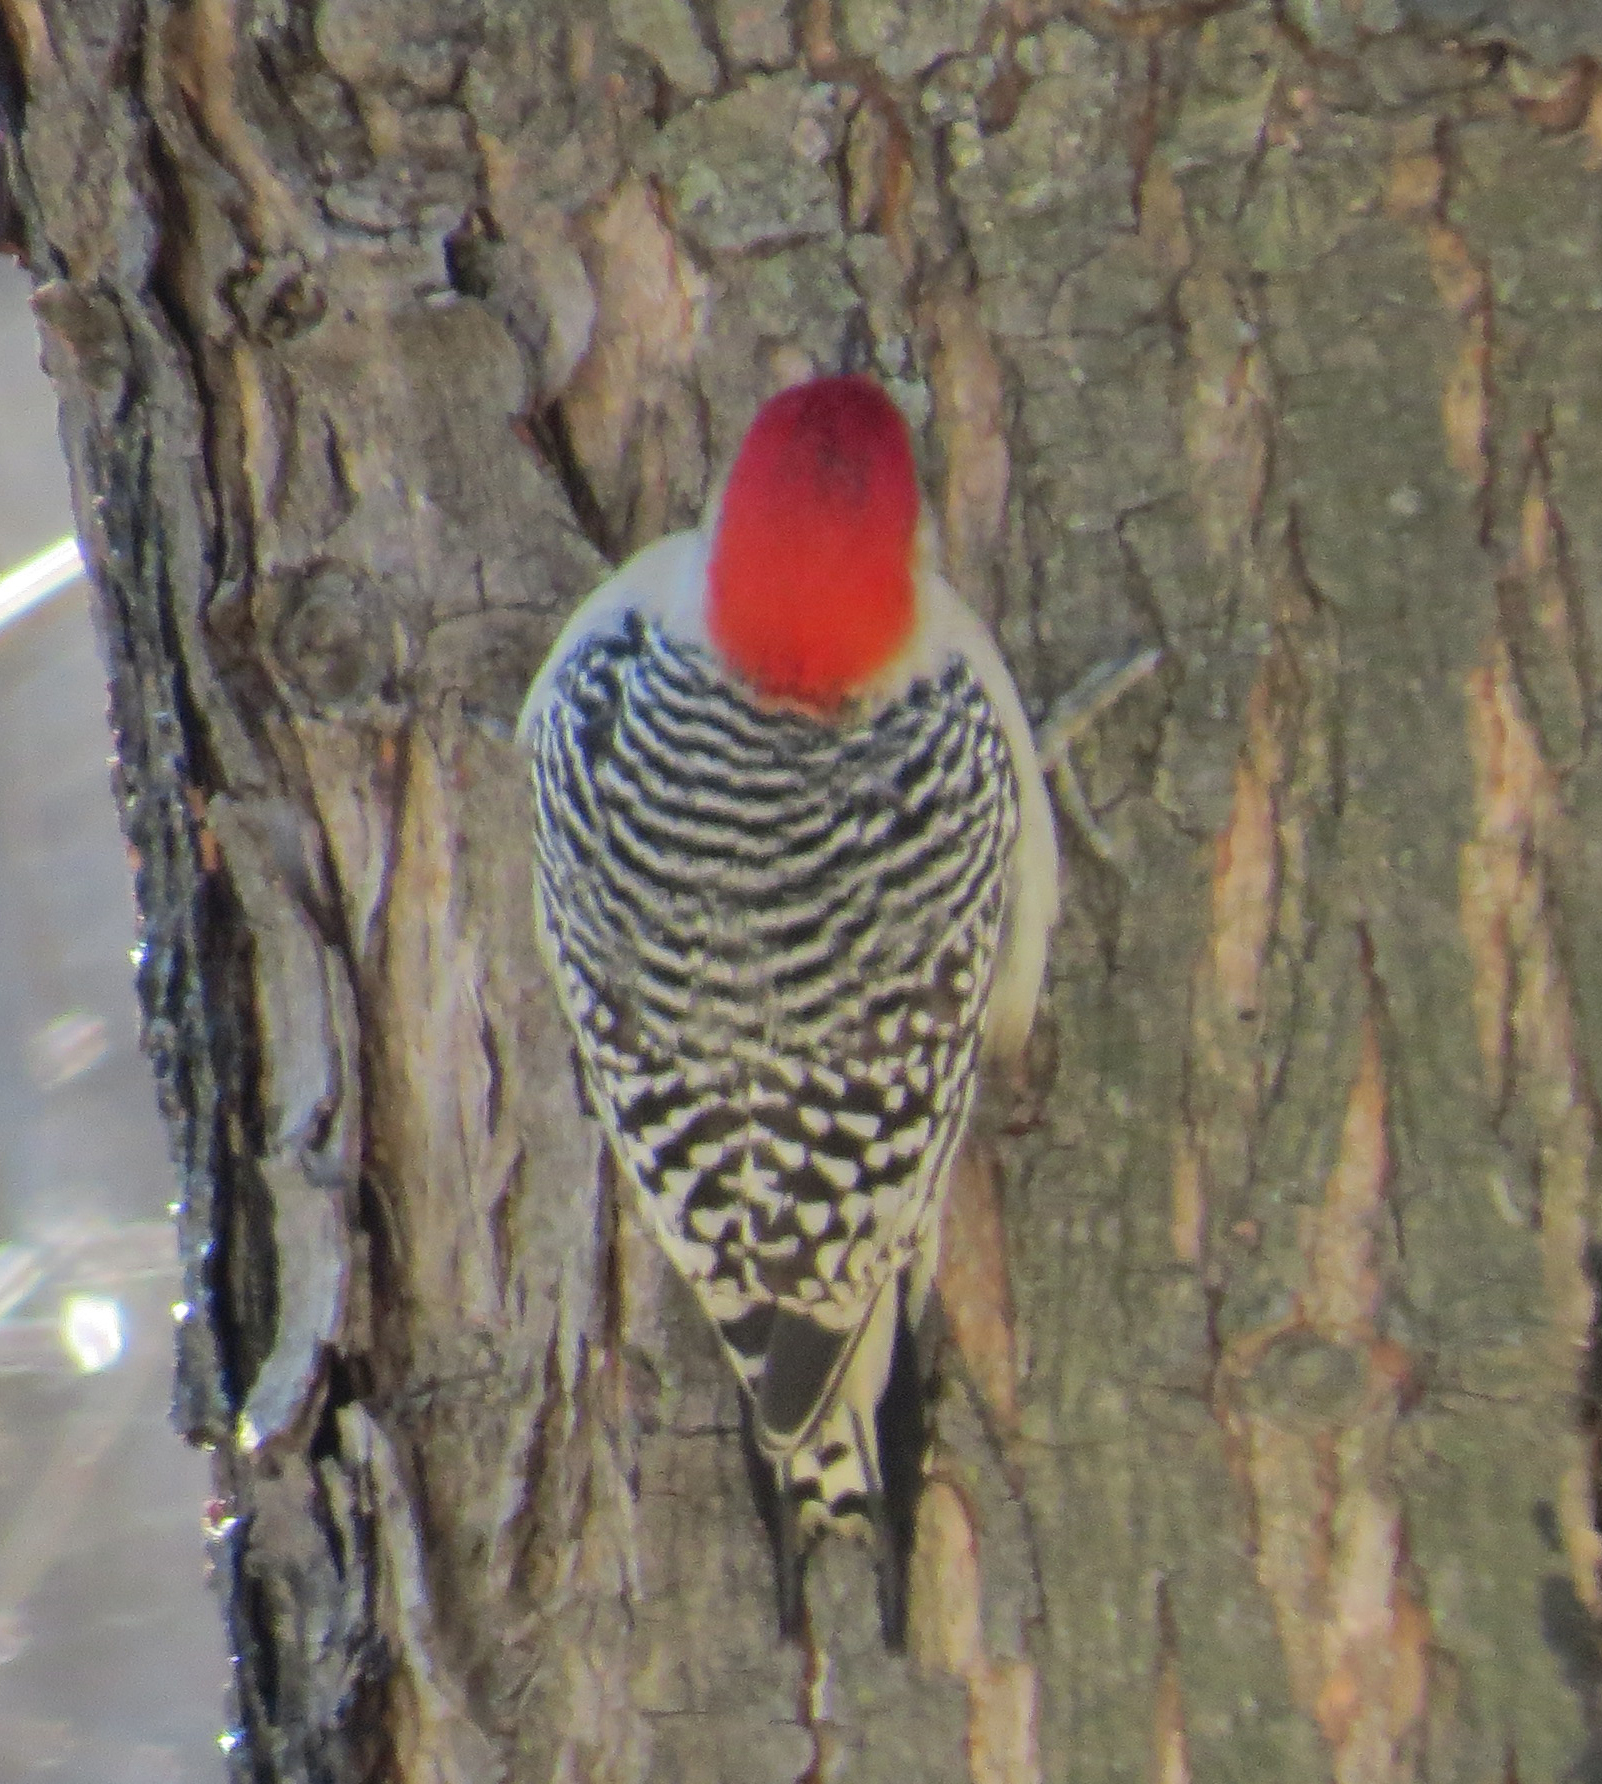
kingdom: Animalia
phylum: Chordata
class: Aves
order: Piciformes
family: Picidae
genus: Melanerpes
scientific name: Melanerpes carolinus
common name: Red-bellied woodpecker
